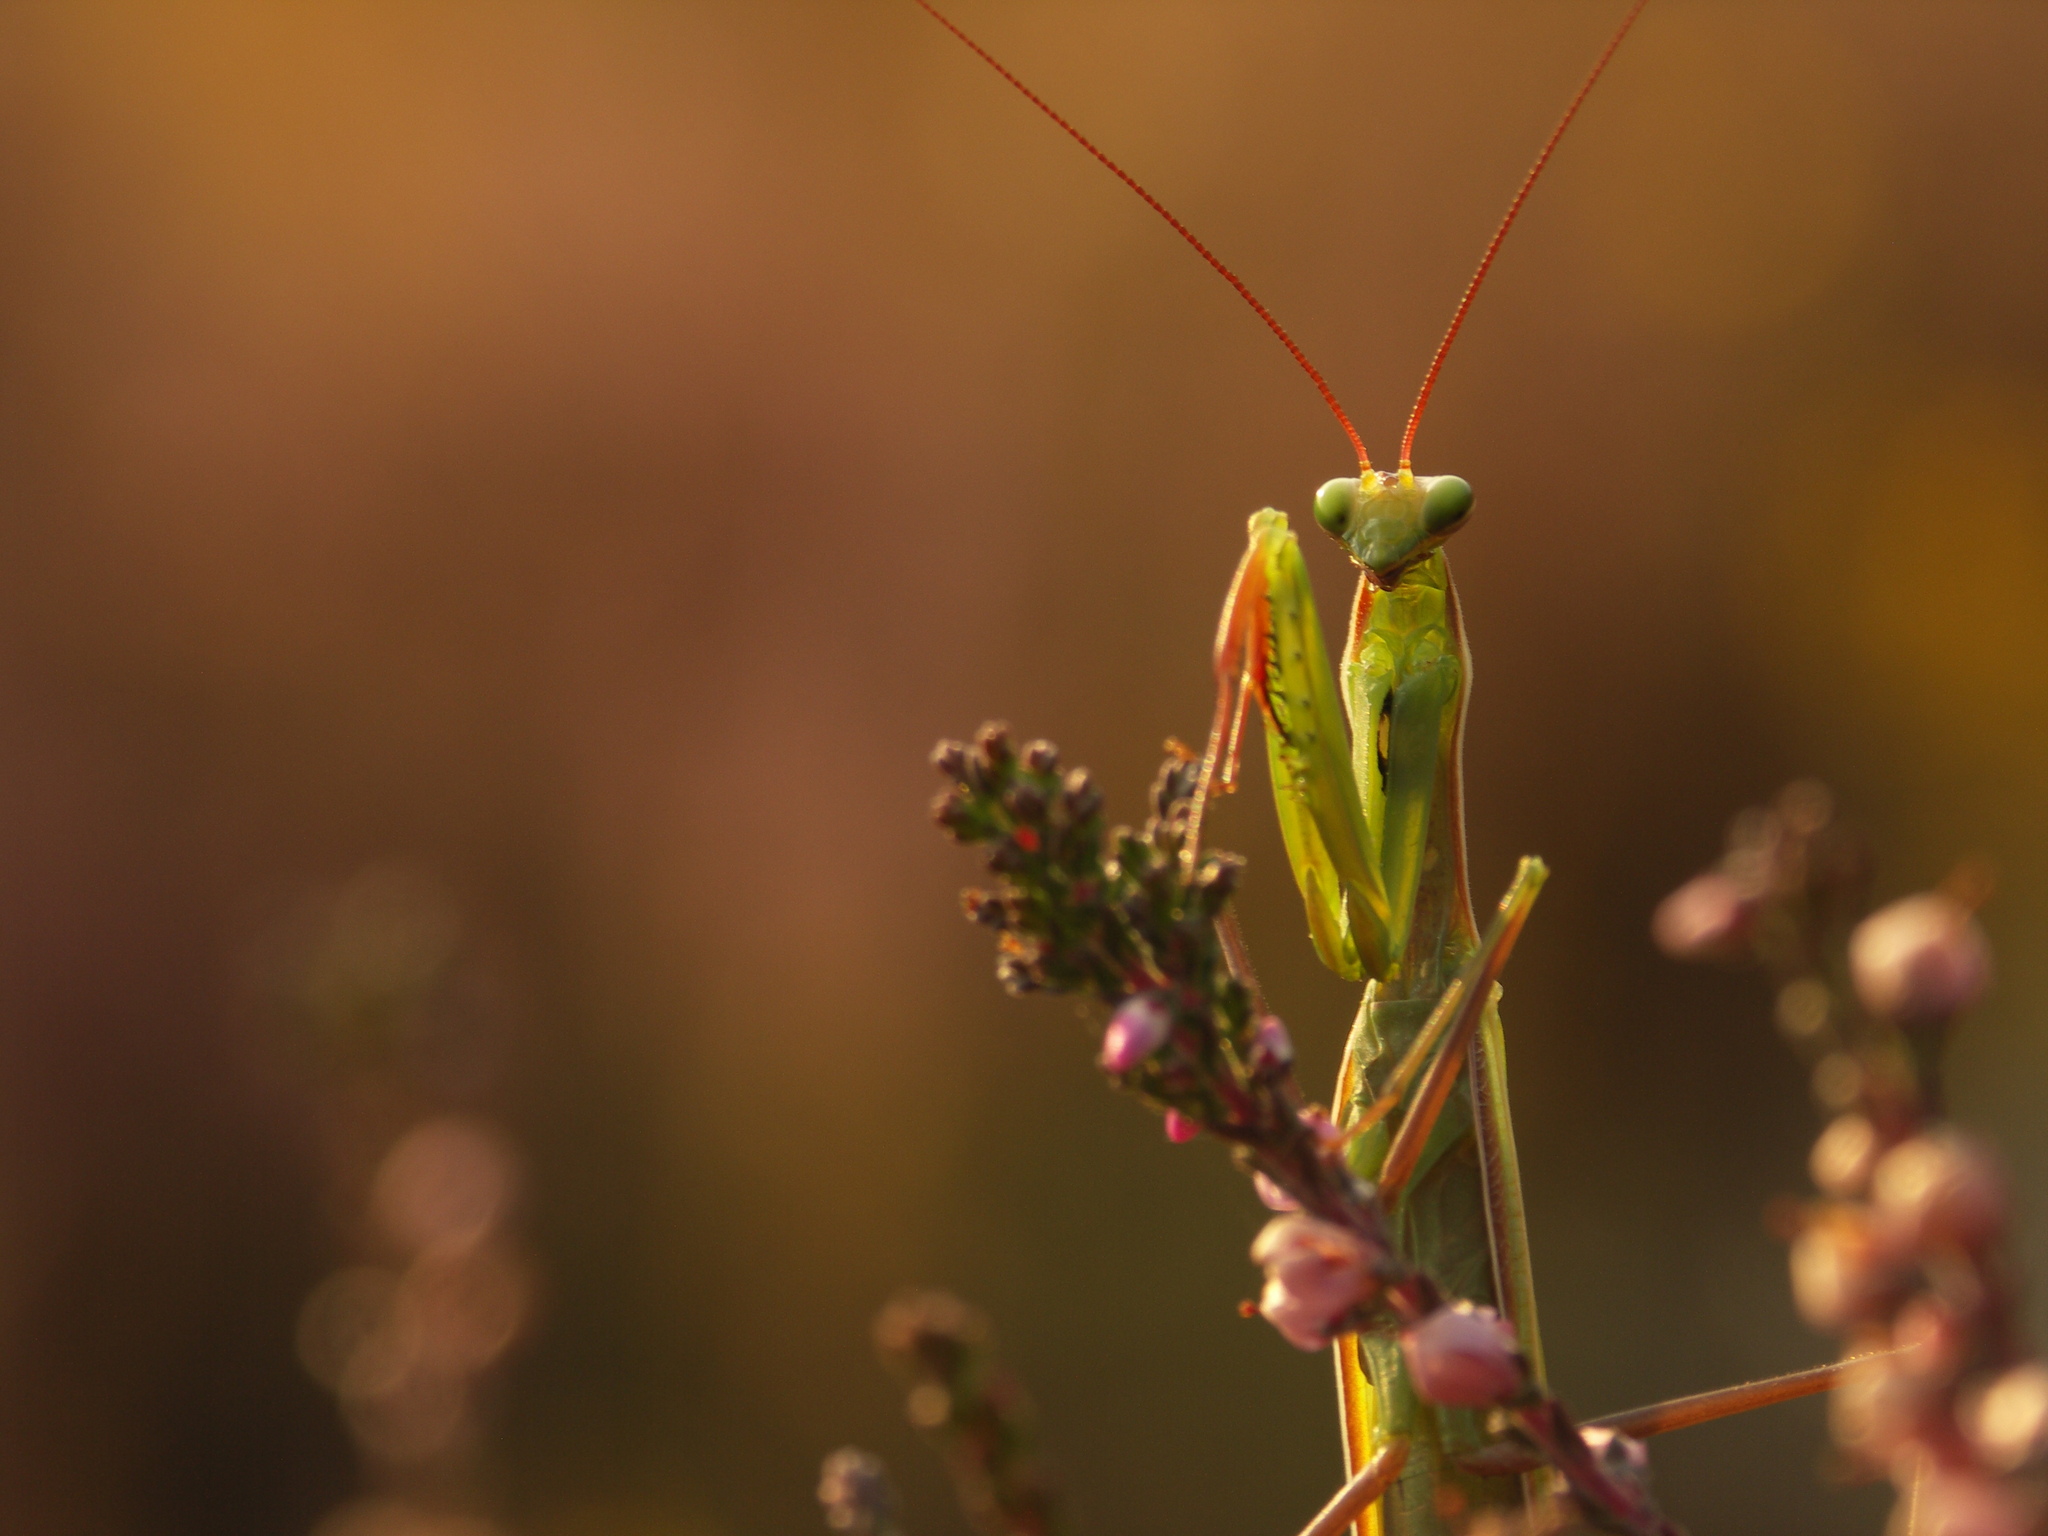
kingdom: Animalia
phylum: Arthropoda
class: Insecta
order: Mantodea
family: Mantidae
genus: Mantis
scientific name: Mantis religiosa
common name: Praying mantis
